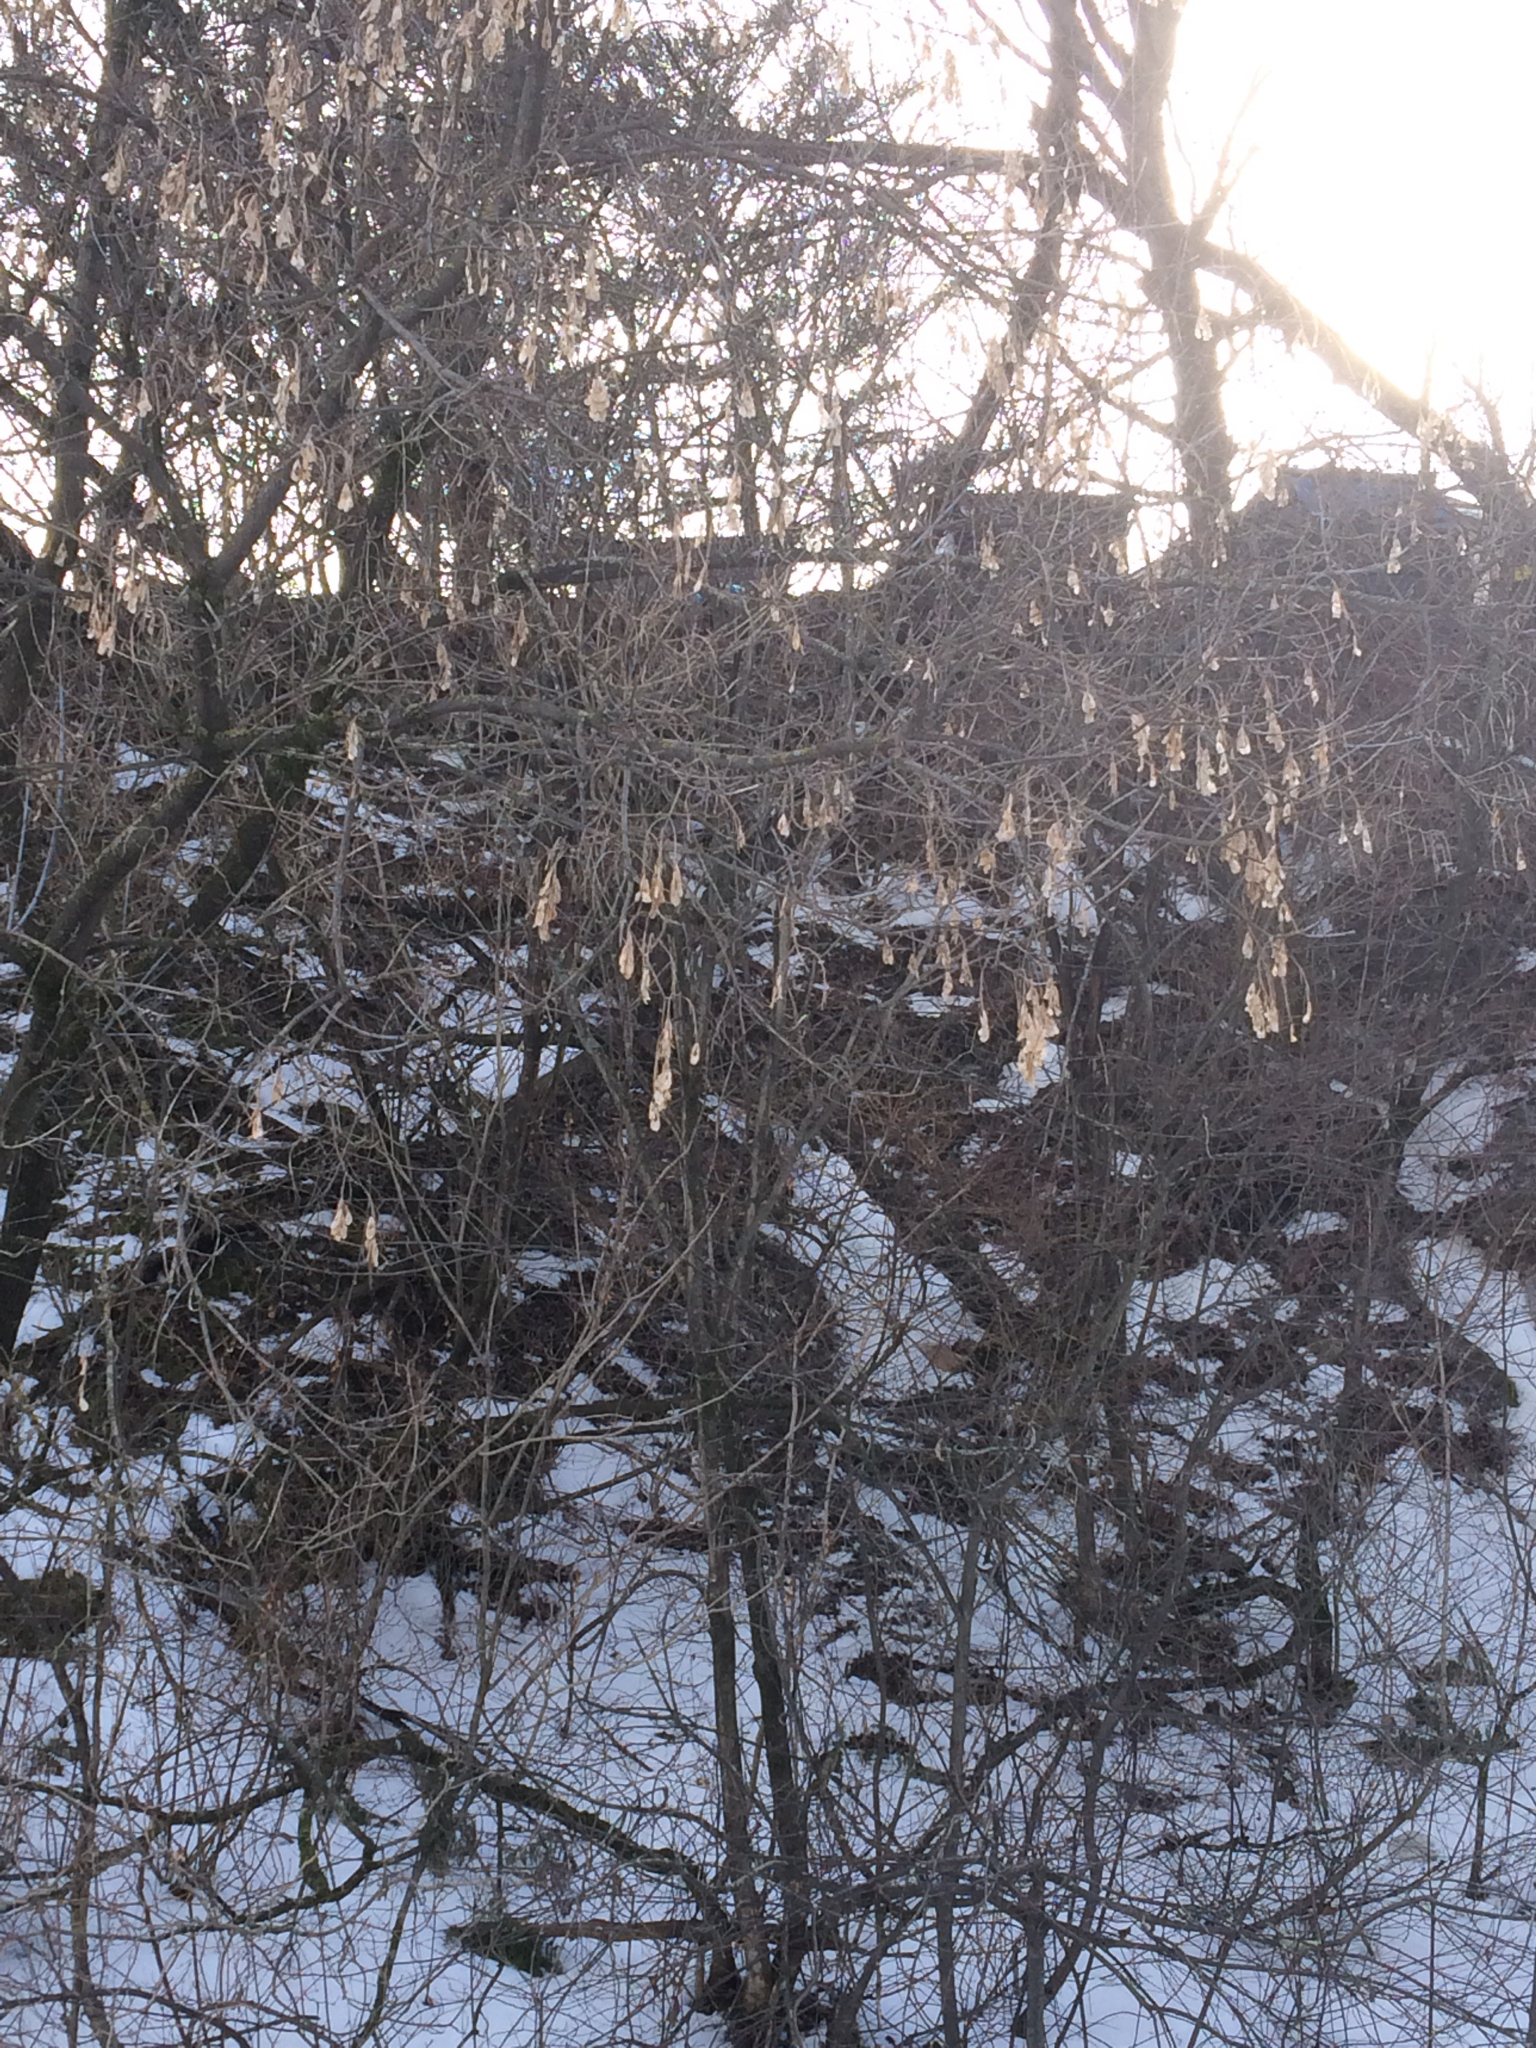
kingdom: Plantae
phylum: Tracheophyta
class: Magnoliopsida
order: Sapindales
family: Sapindaceae
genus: Acer
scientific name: Acer negundo
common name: Ashleaf maple
